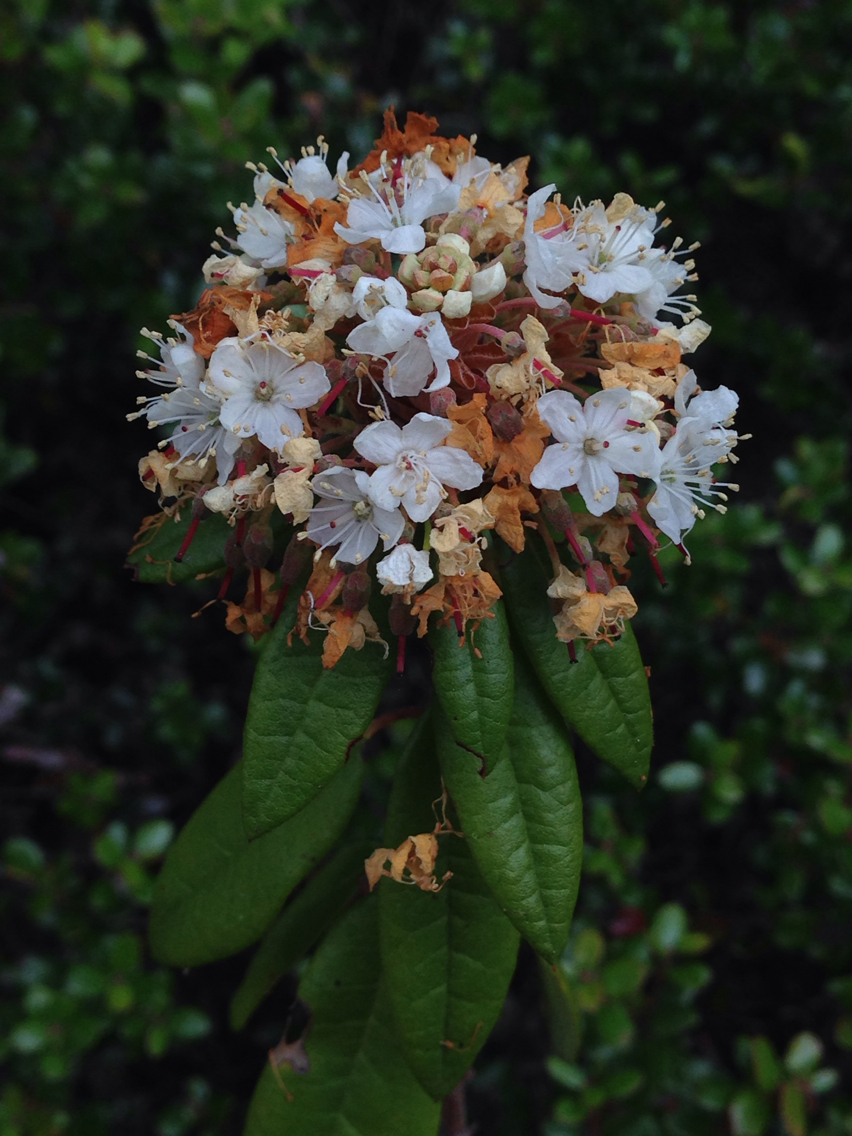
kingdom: Plantae
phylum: Tracheophyta
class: Magnoliopsida
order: Ericales
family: Ericaceae
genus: Rhododendron
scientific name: Rhododendron columbianum
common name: Western labrador tea
